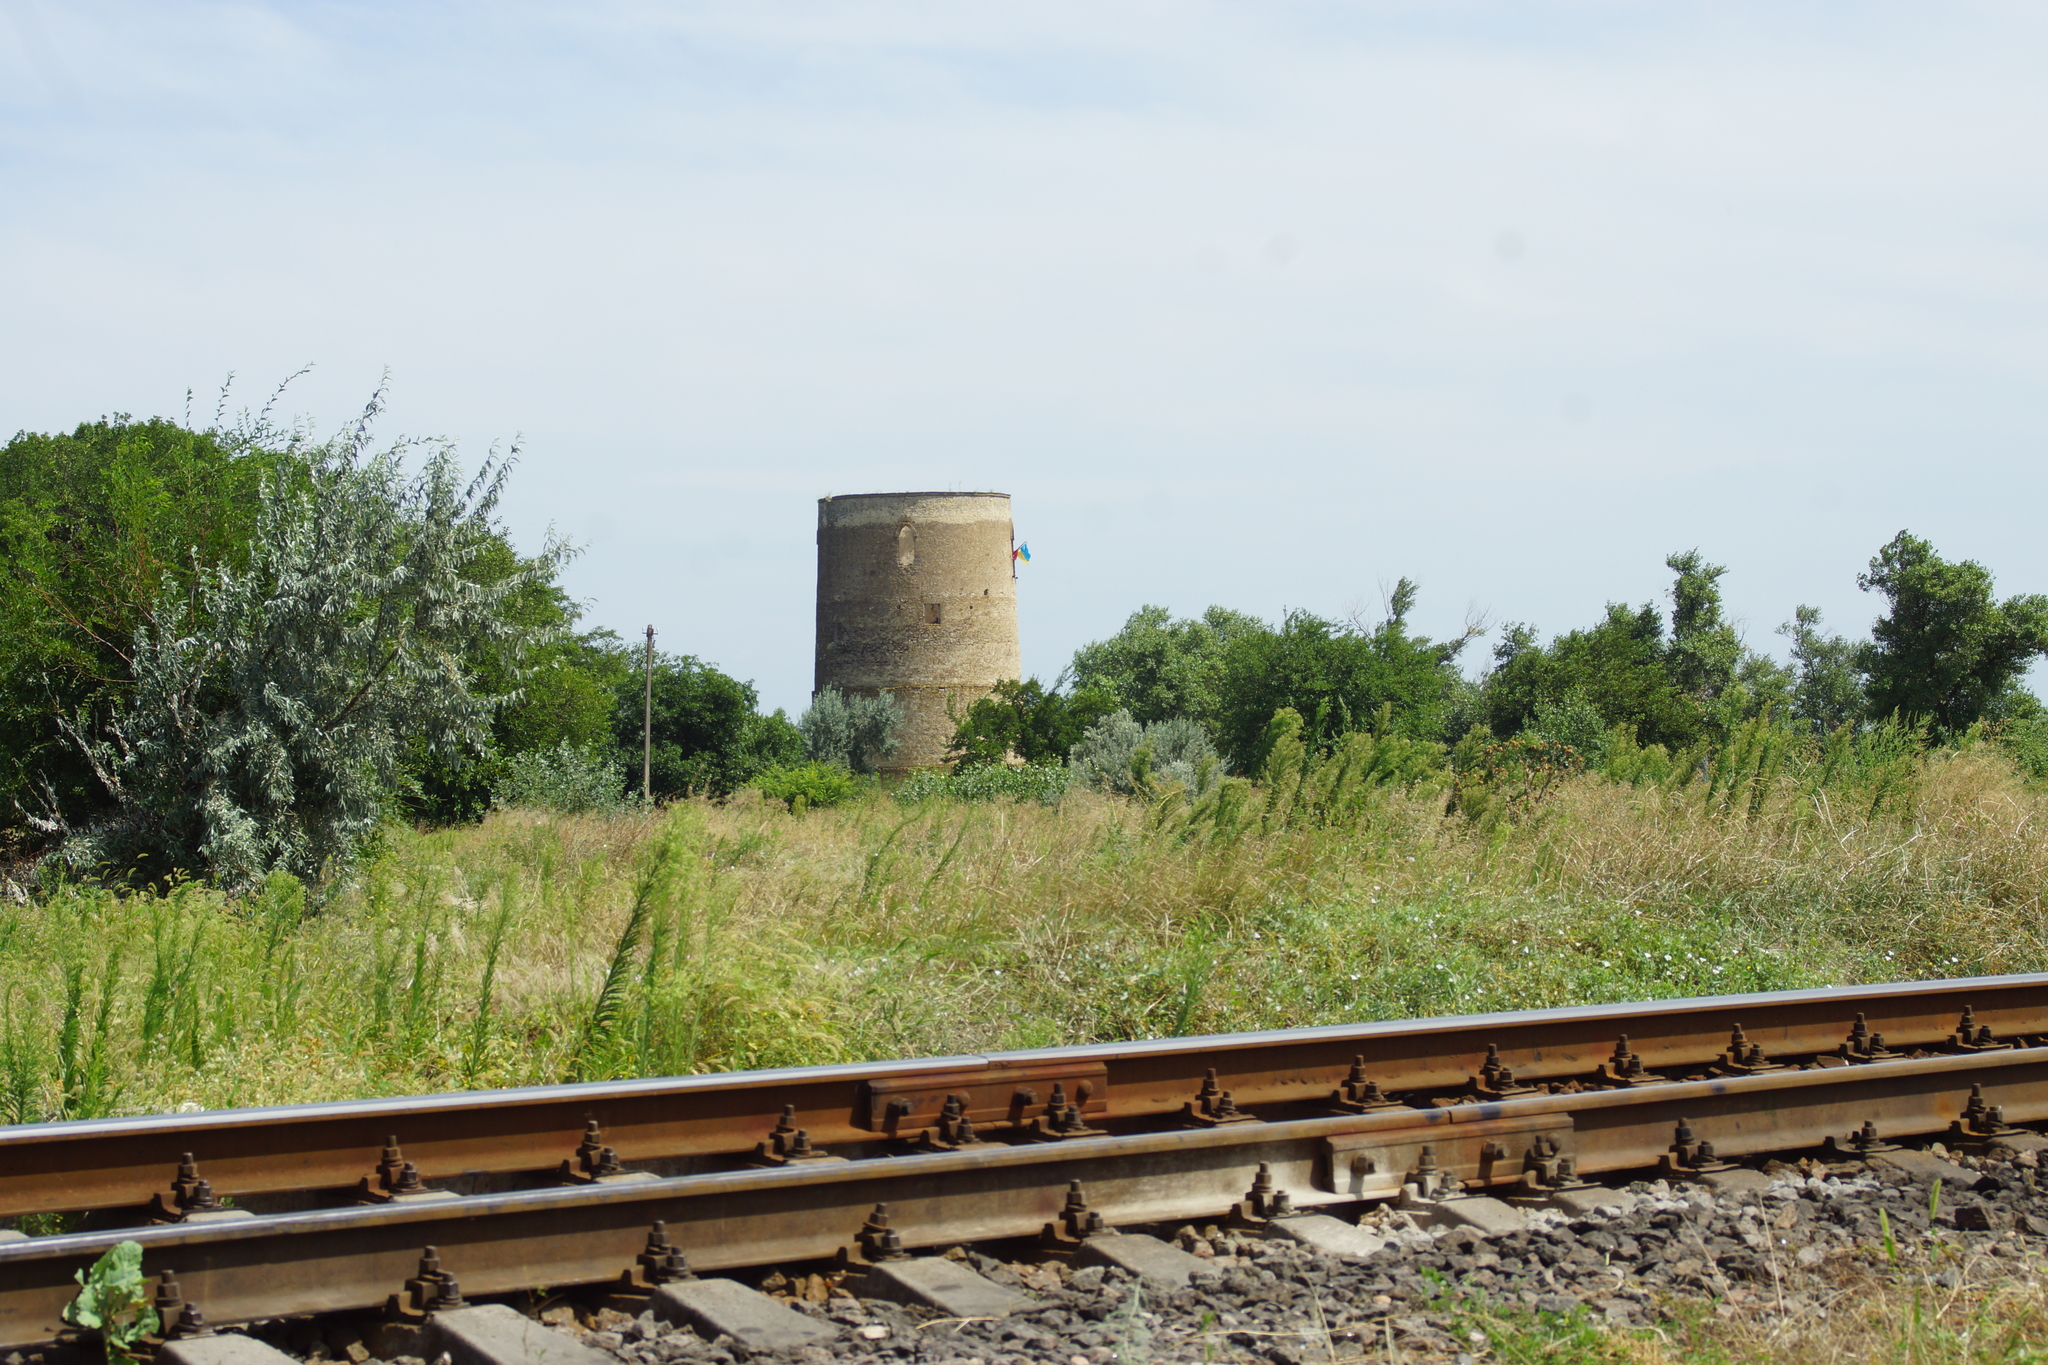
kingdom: Plantae
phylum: Tracheophyta
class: Magnoliopsida
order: Rosales
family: Elaeagnaceae
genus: Elaeagnus
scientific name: Elaeagnus angustifolia
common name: Russian olive
